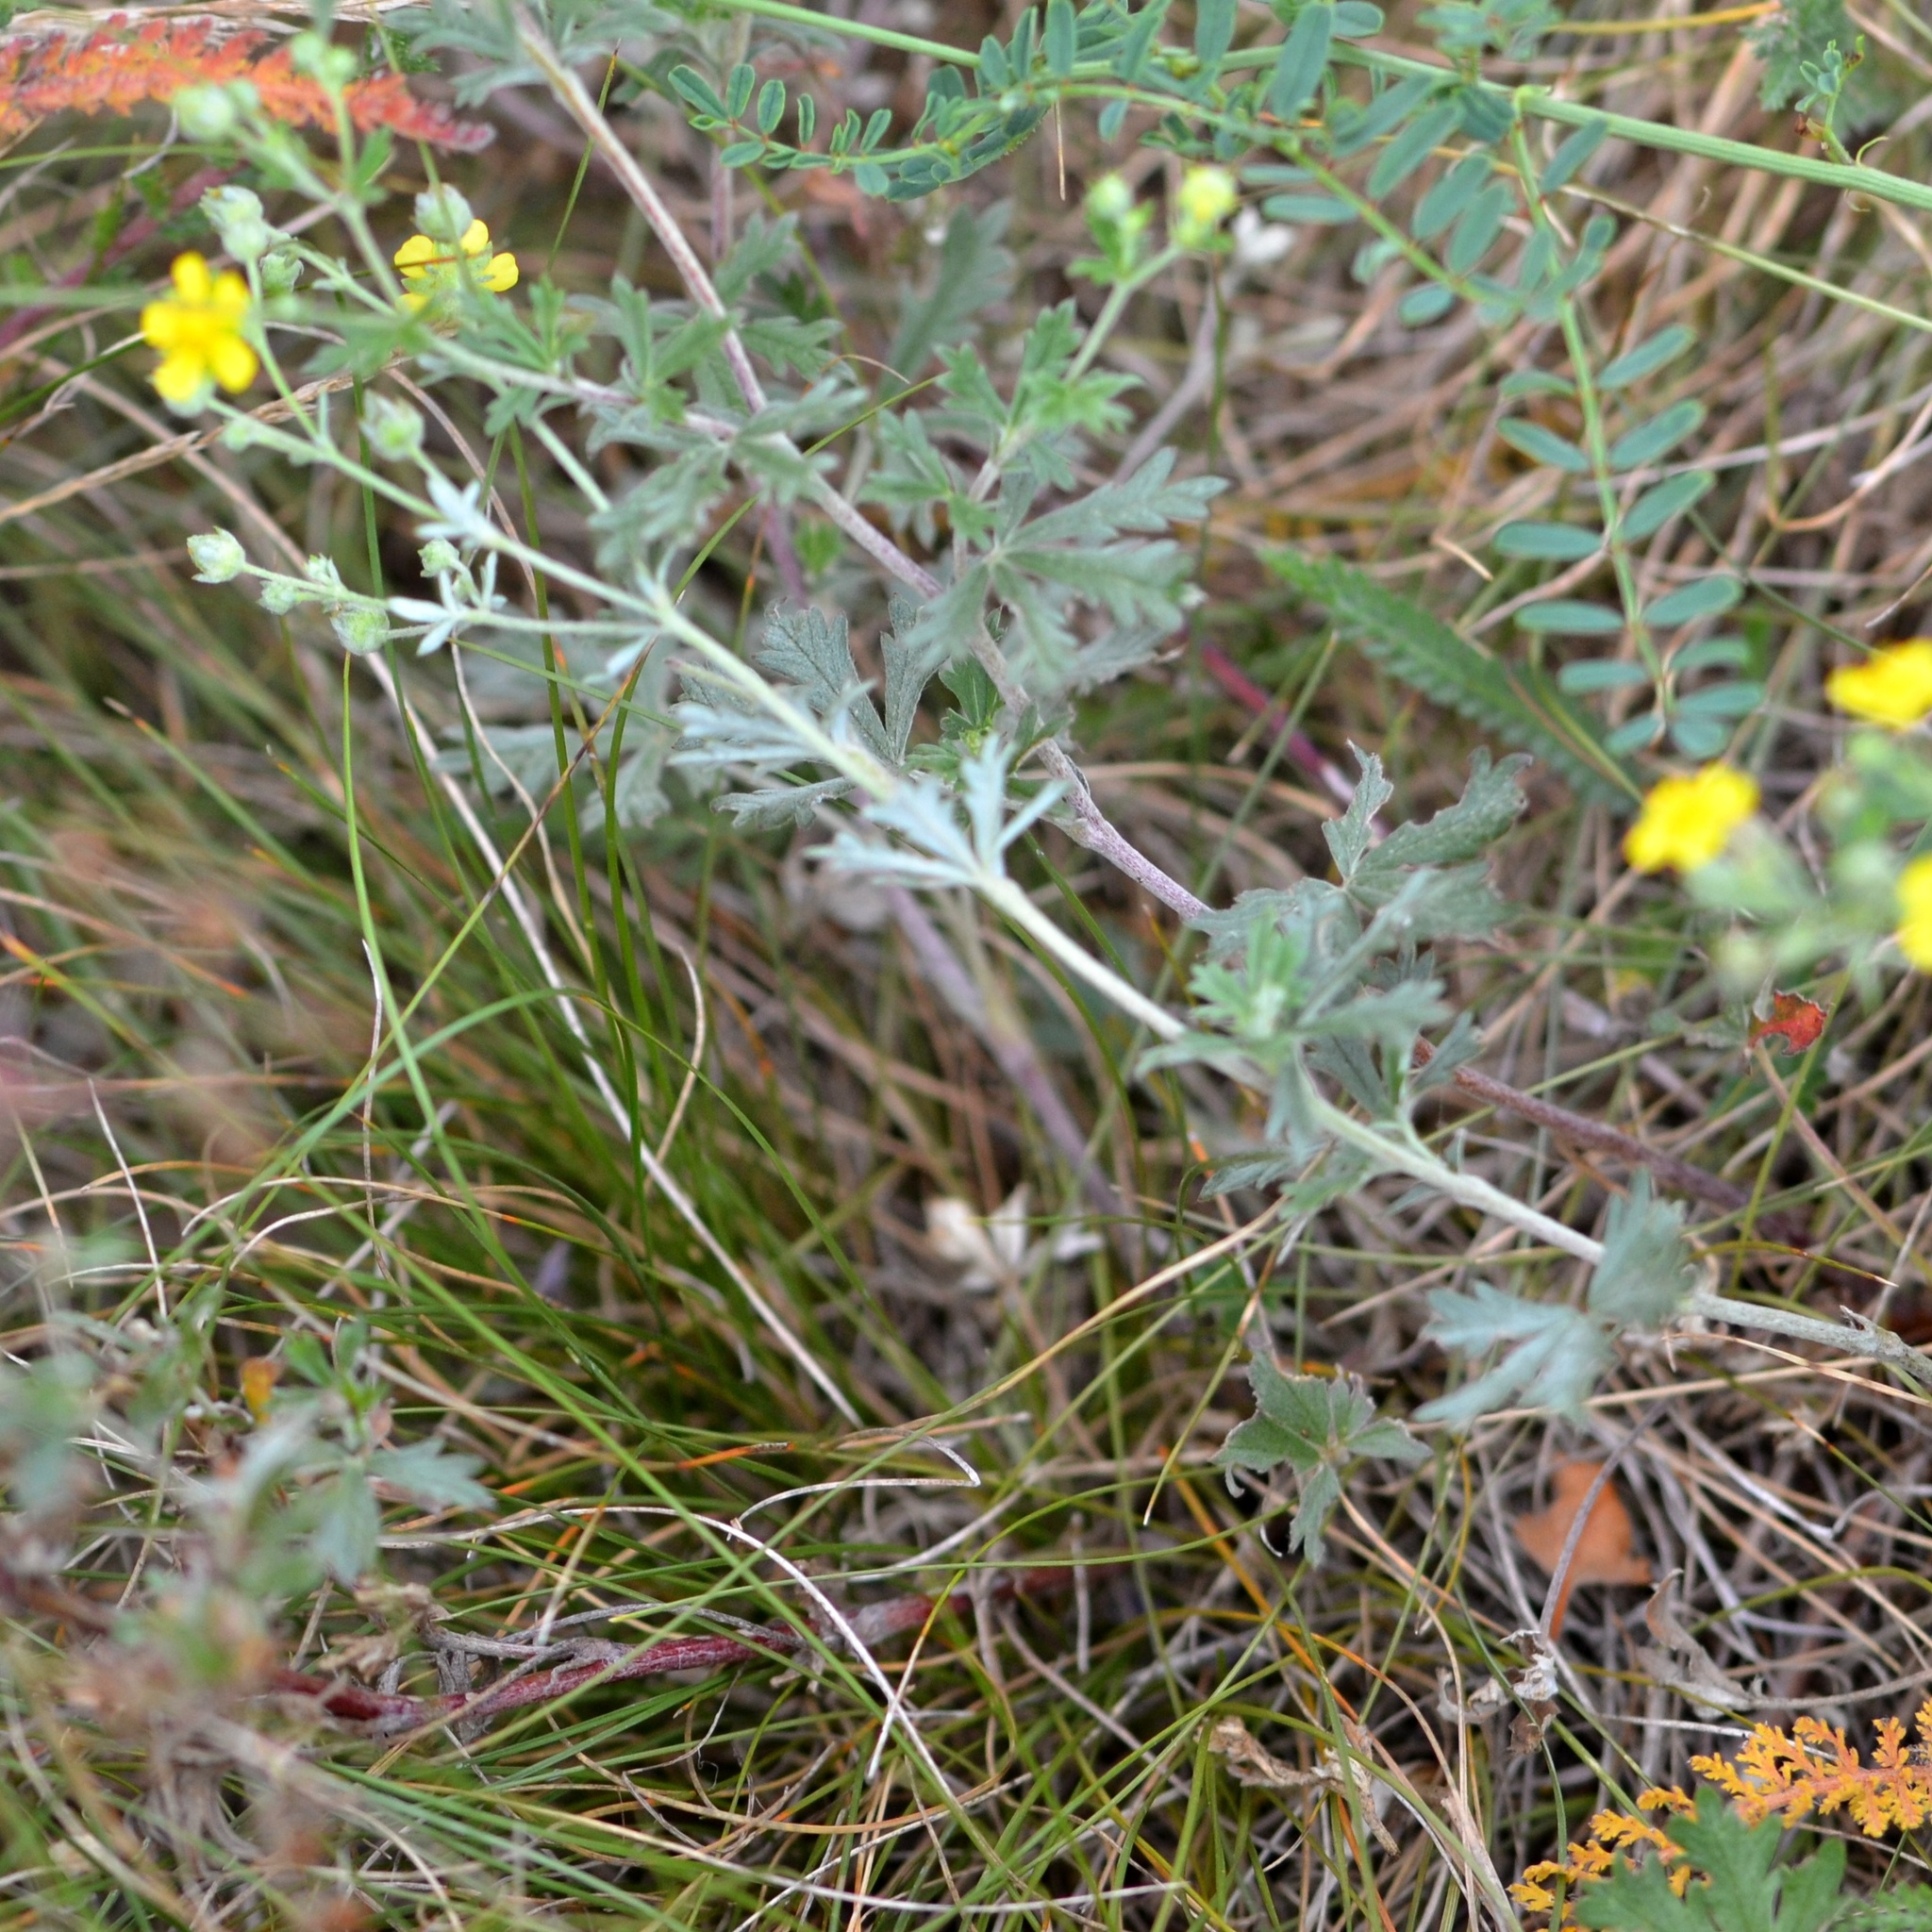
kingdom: Plantae
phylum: Tracheophyta
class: Magnoliopsida
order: Rosales
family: Rosaceae
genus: Potentilla
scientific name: Potentilla argentea
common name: Hoary cinquefoil
